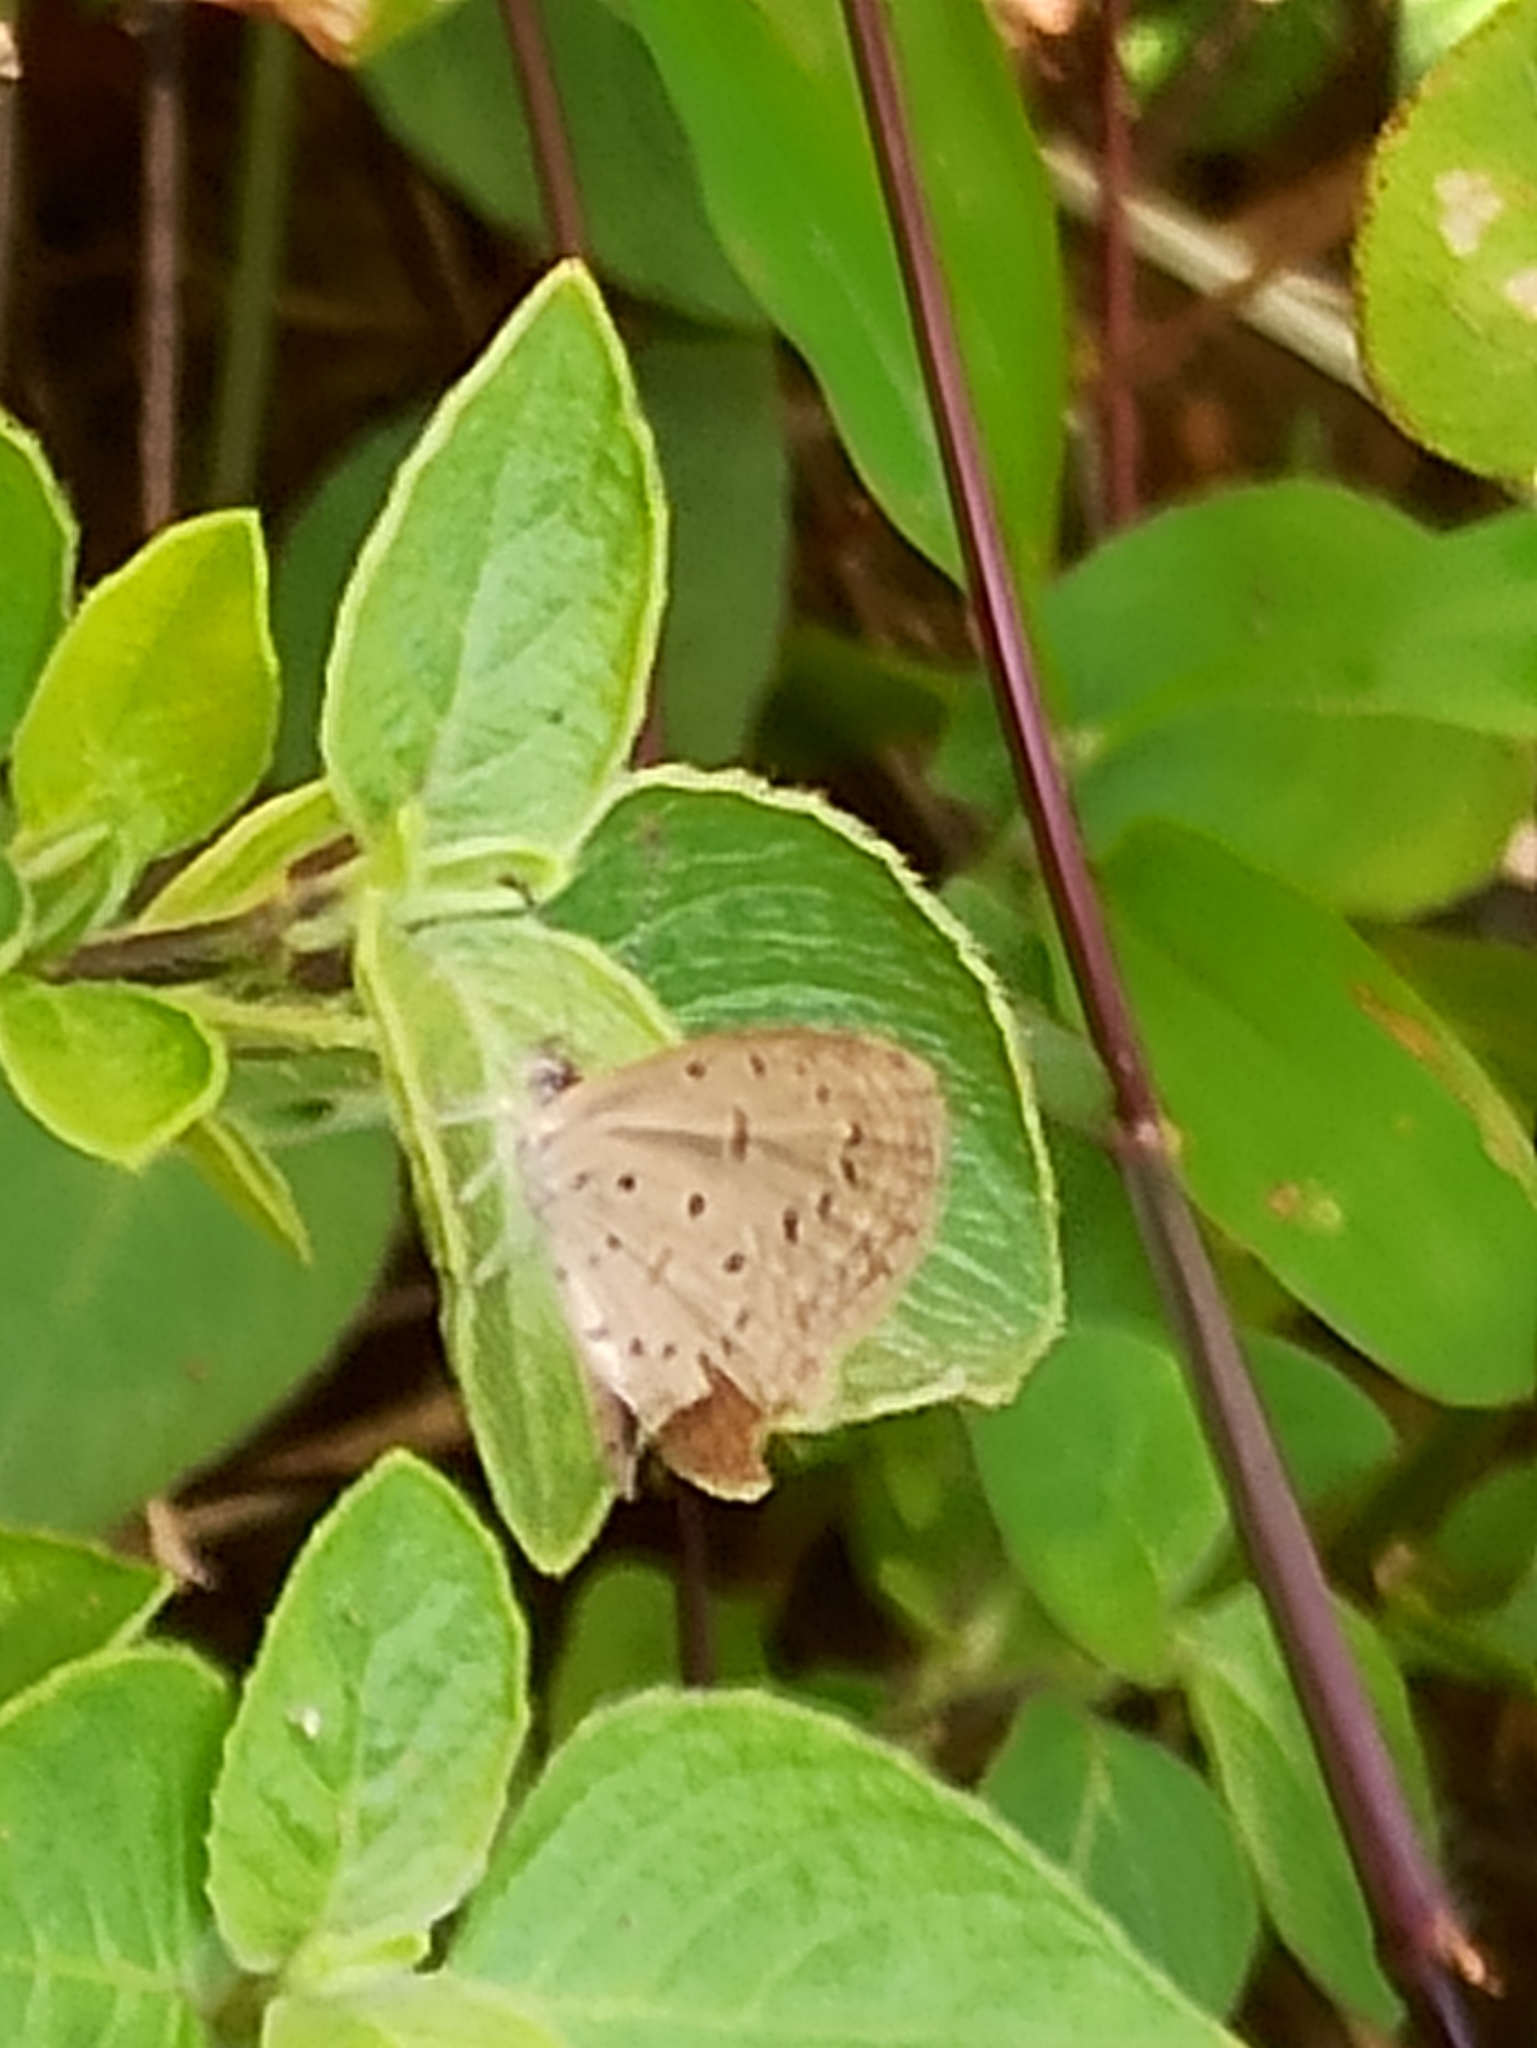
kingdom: Animalia
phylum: Arthropoda
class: Insecta
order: Lepidoptera
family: Lycaenidae
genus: Zizula
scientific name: Zizula hylax
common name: Gaika blue
